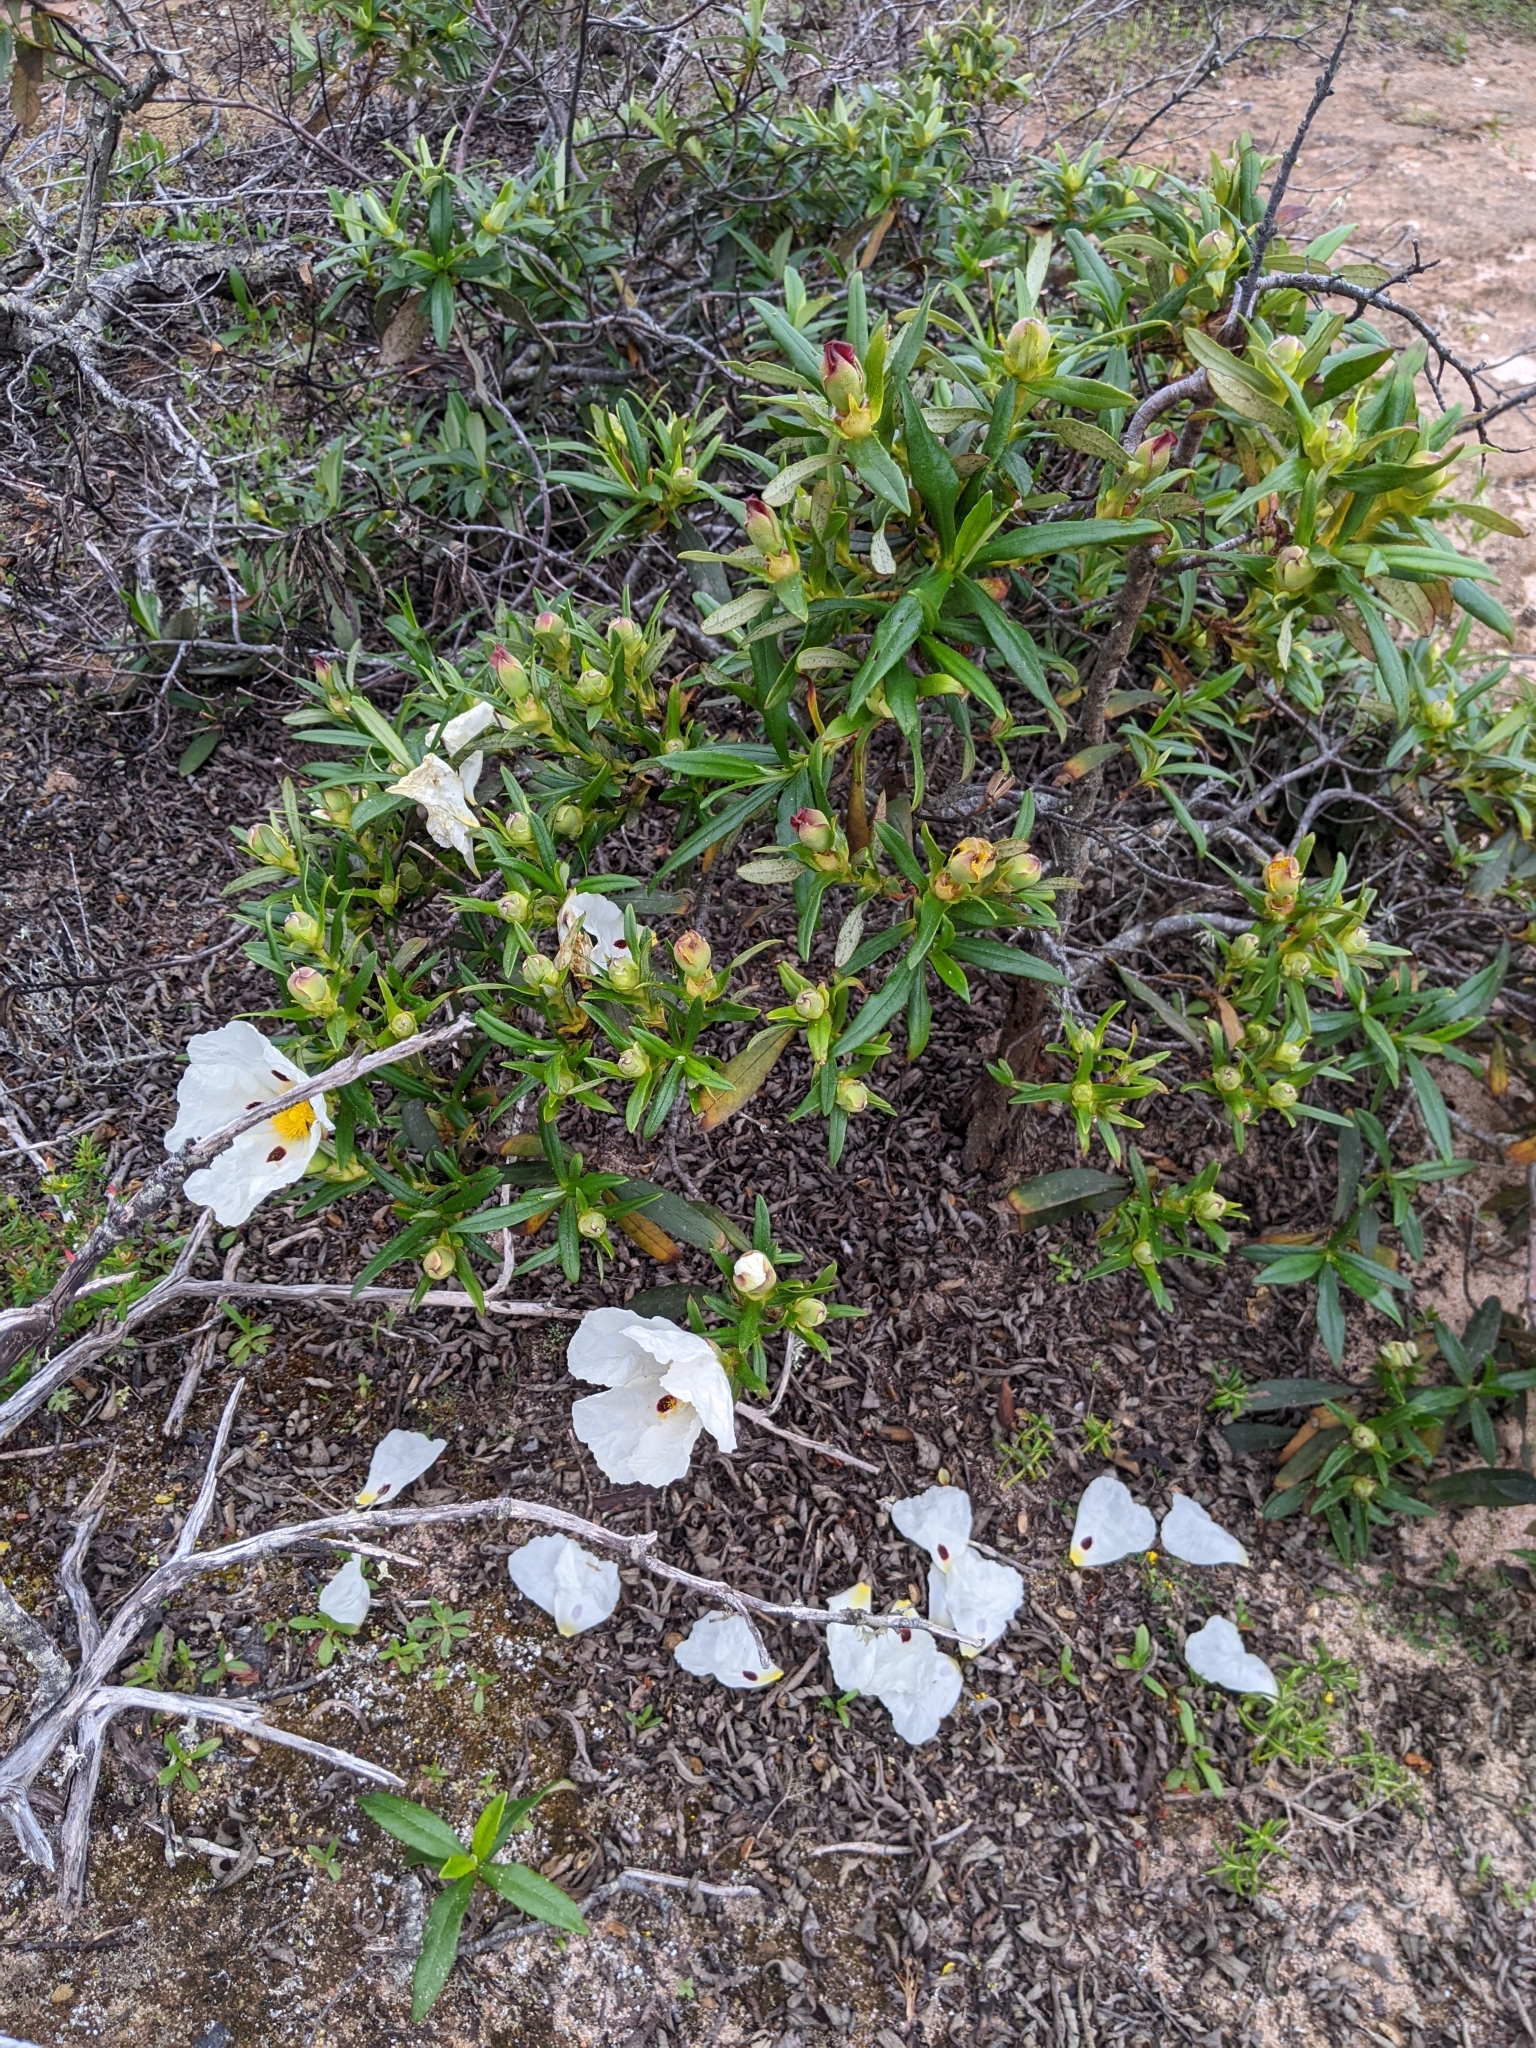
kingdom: Plantae
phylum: Tracheophyta
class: Magnoliopsida
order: Malvales
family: Cistaceae
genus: Cistus
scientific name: Cistus ladanifer
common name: Common gum cistus
